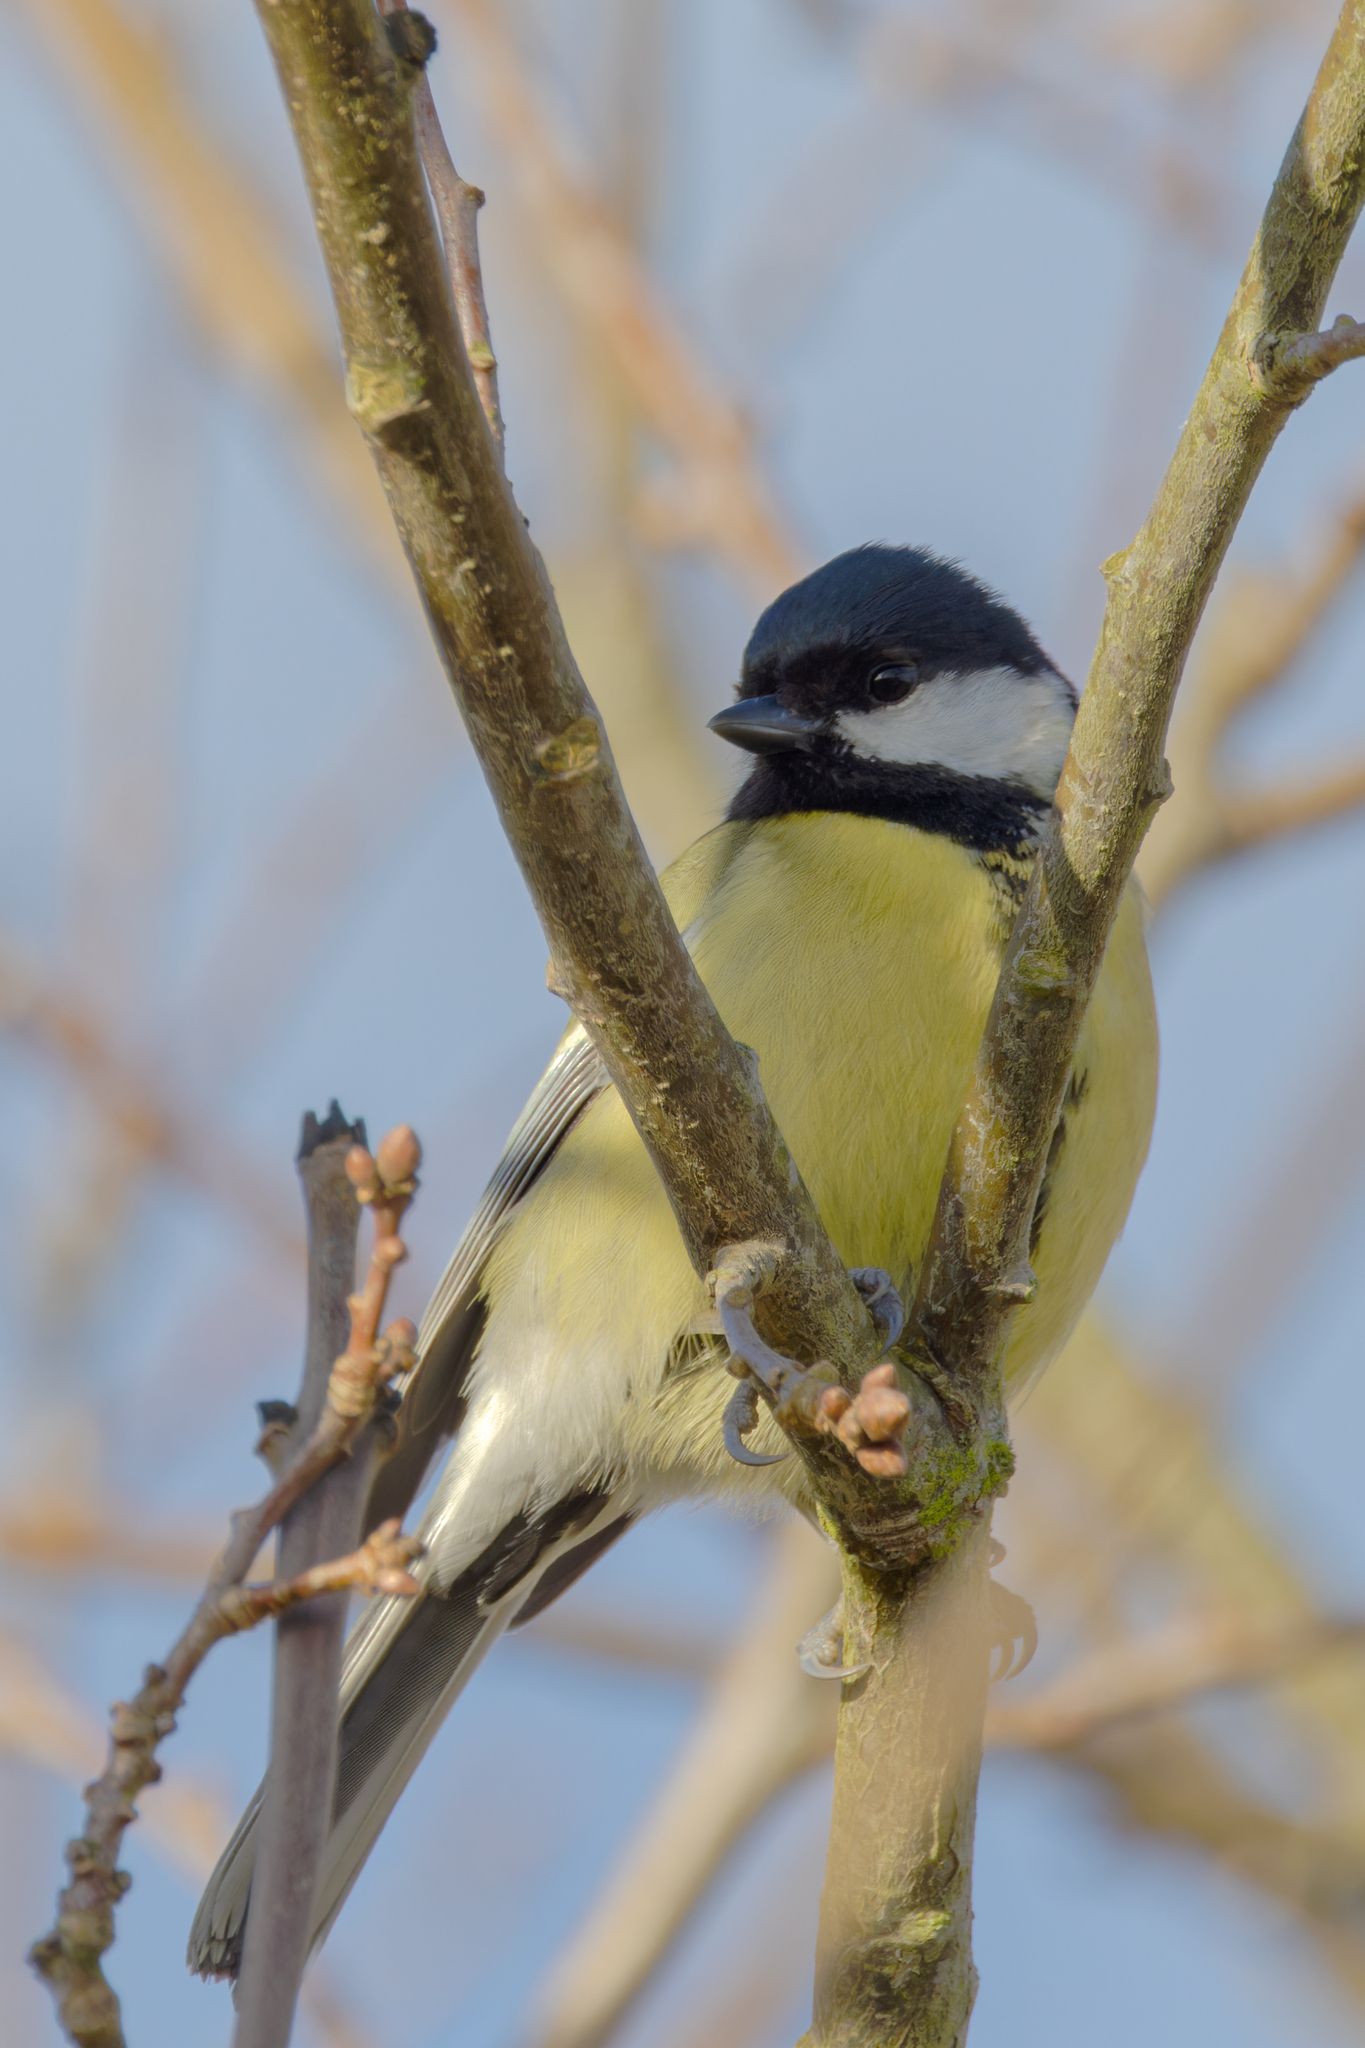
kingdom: Animalia
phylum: Chordata
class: Aves
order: Passeriformes
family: Paridae
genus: Parus
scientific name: Parus major
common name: Great tit
